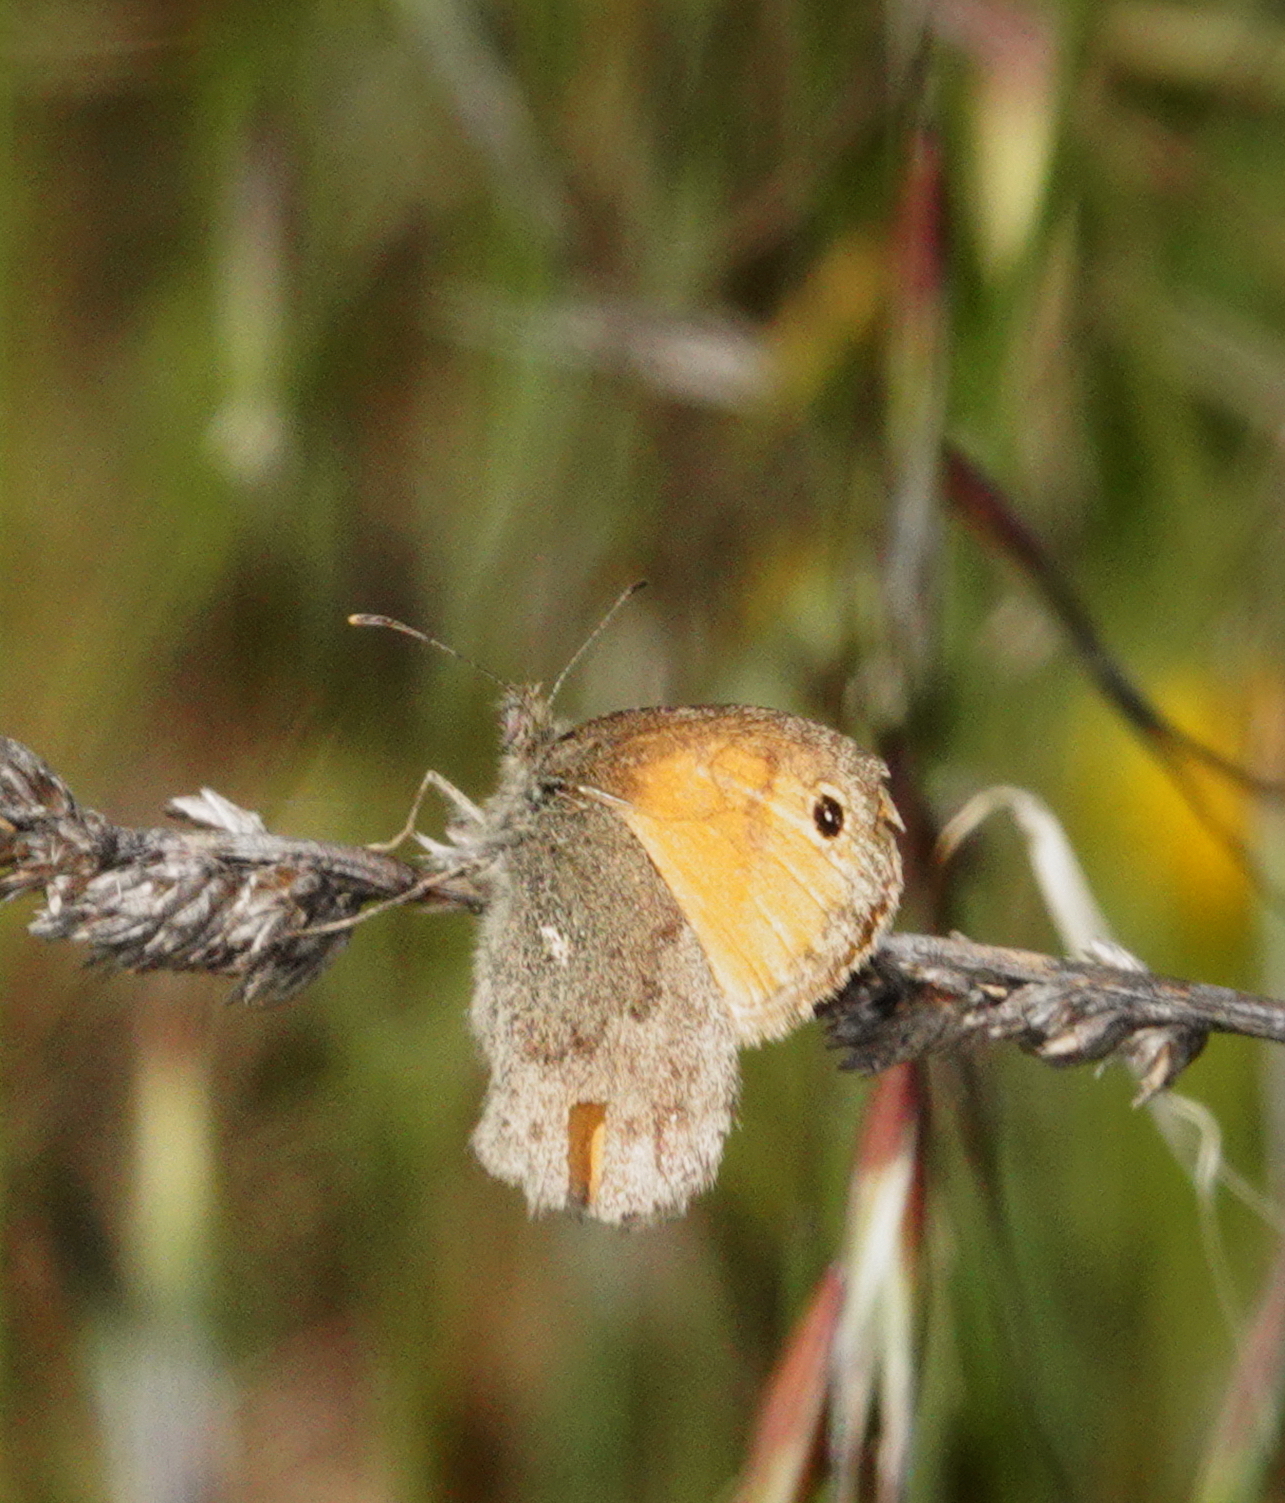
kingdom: Animalia
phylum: Arthropoda
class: Insecta
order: Lepidoptera
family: Nymphalidae
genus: Coenonympha
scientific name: Coenonympha pamphilus
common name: Small heath
